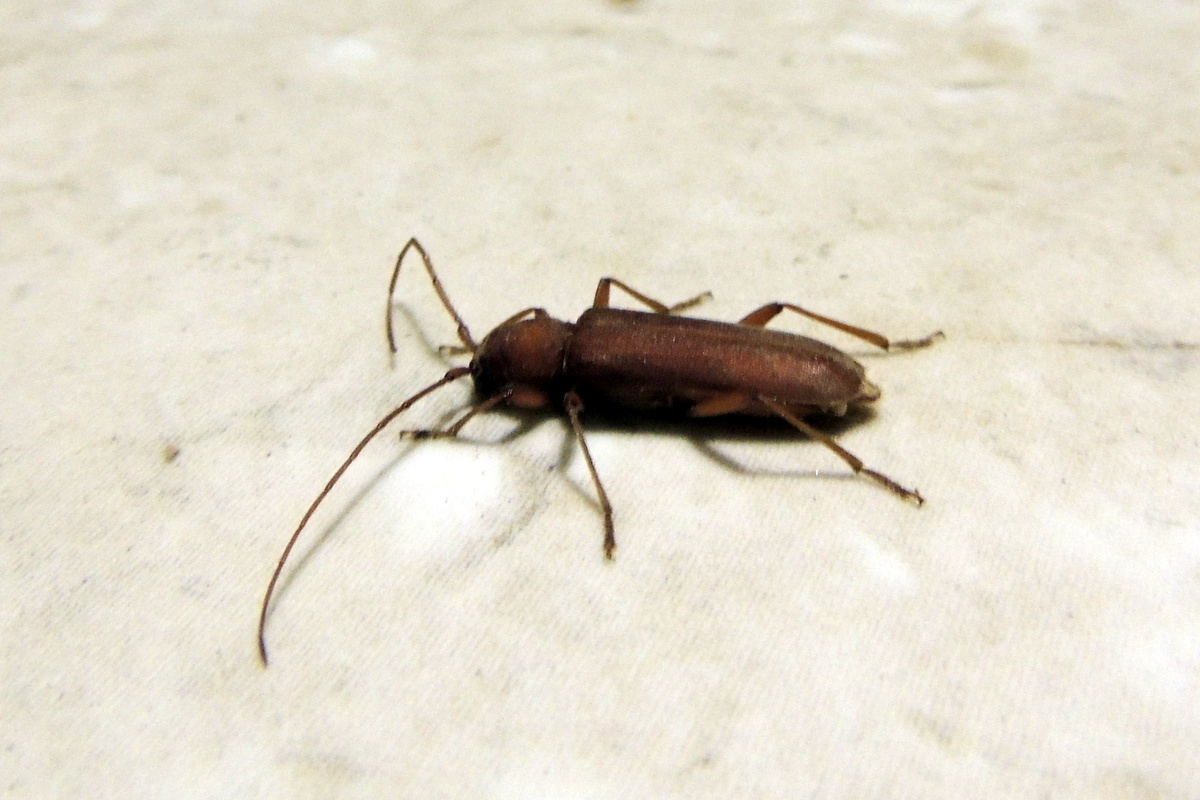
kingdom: Animalia
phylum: Arthropoda
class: Insecta
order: Coleoptera
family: Cerambycidae
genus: Stromatium
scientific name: Stromatium auratum
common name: Long-horned beetle
